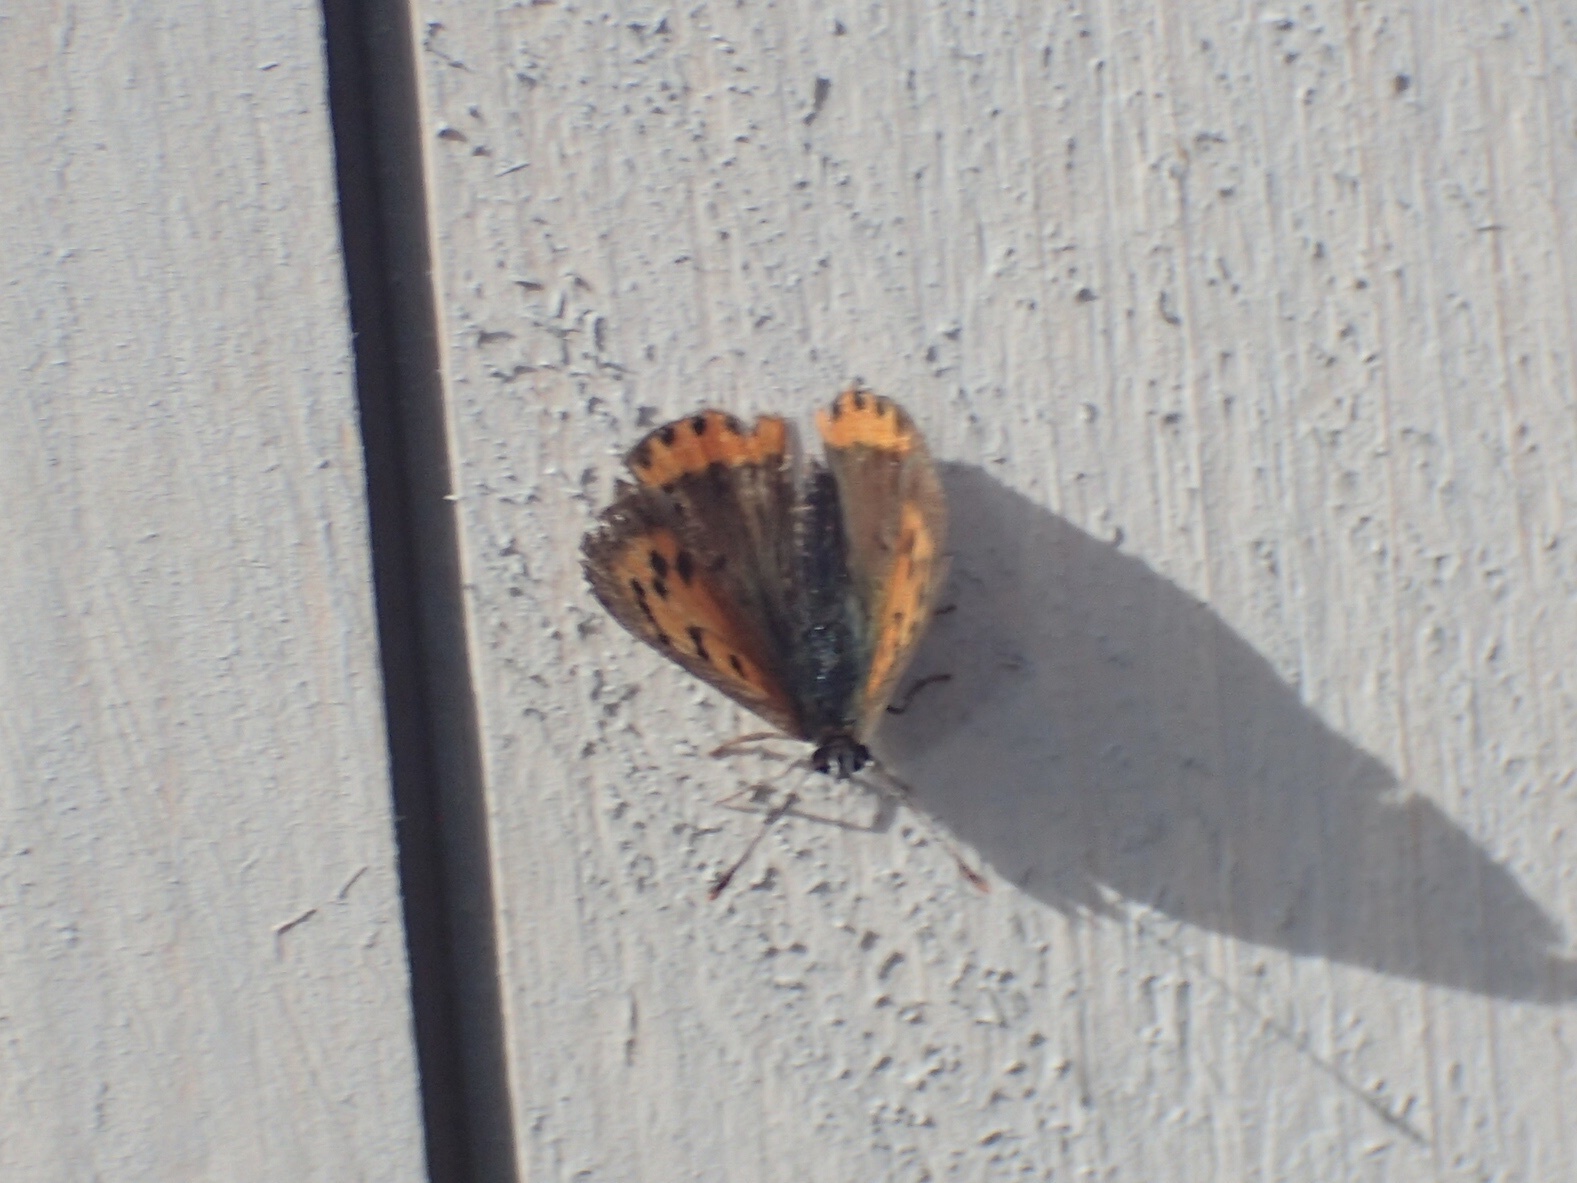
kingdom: Animalia
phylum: Arthropoda
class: Insecta
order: Lepidoptera
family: Lycaenidae
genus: Lycaena
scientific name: Lycaena hypophlaeas
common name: American copper
